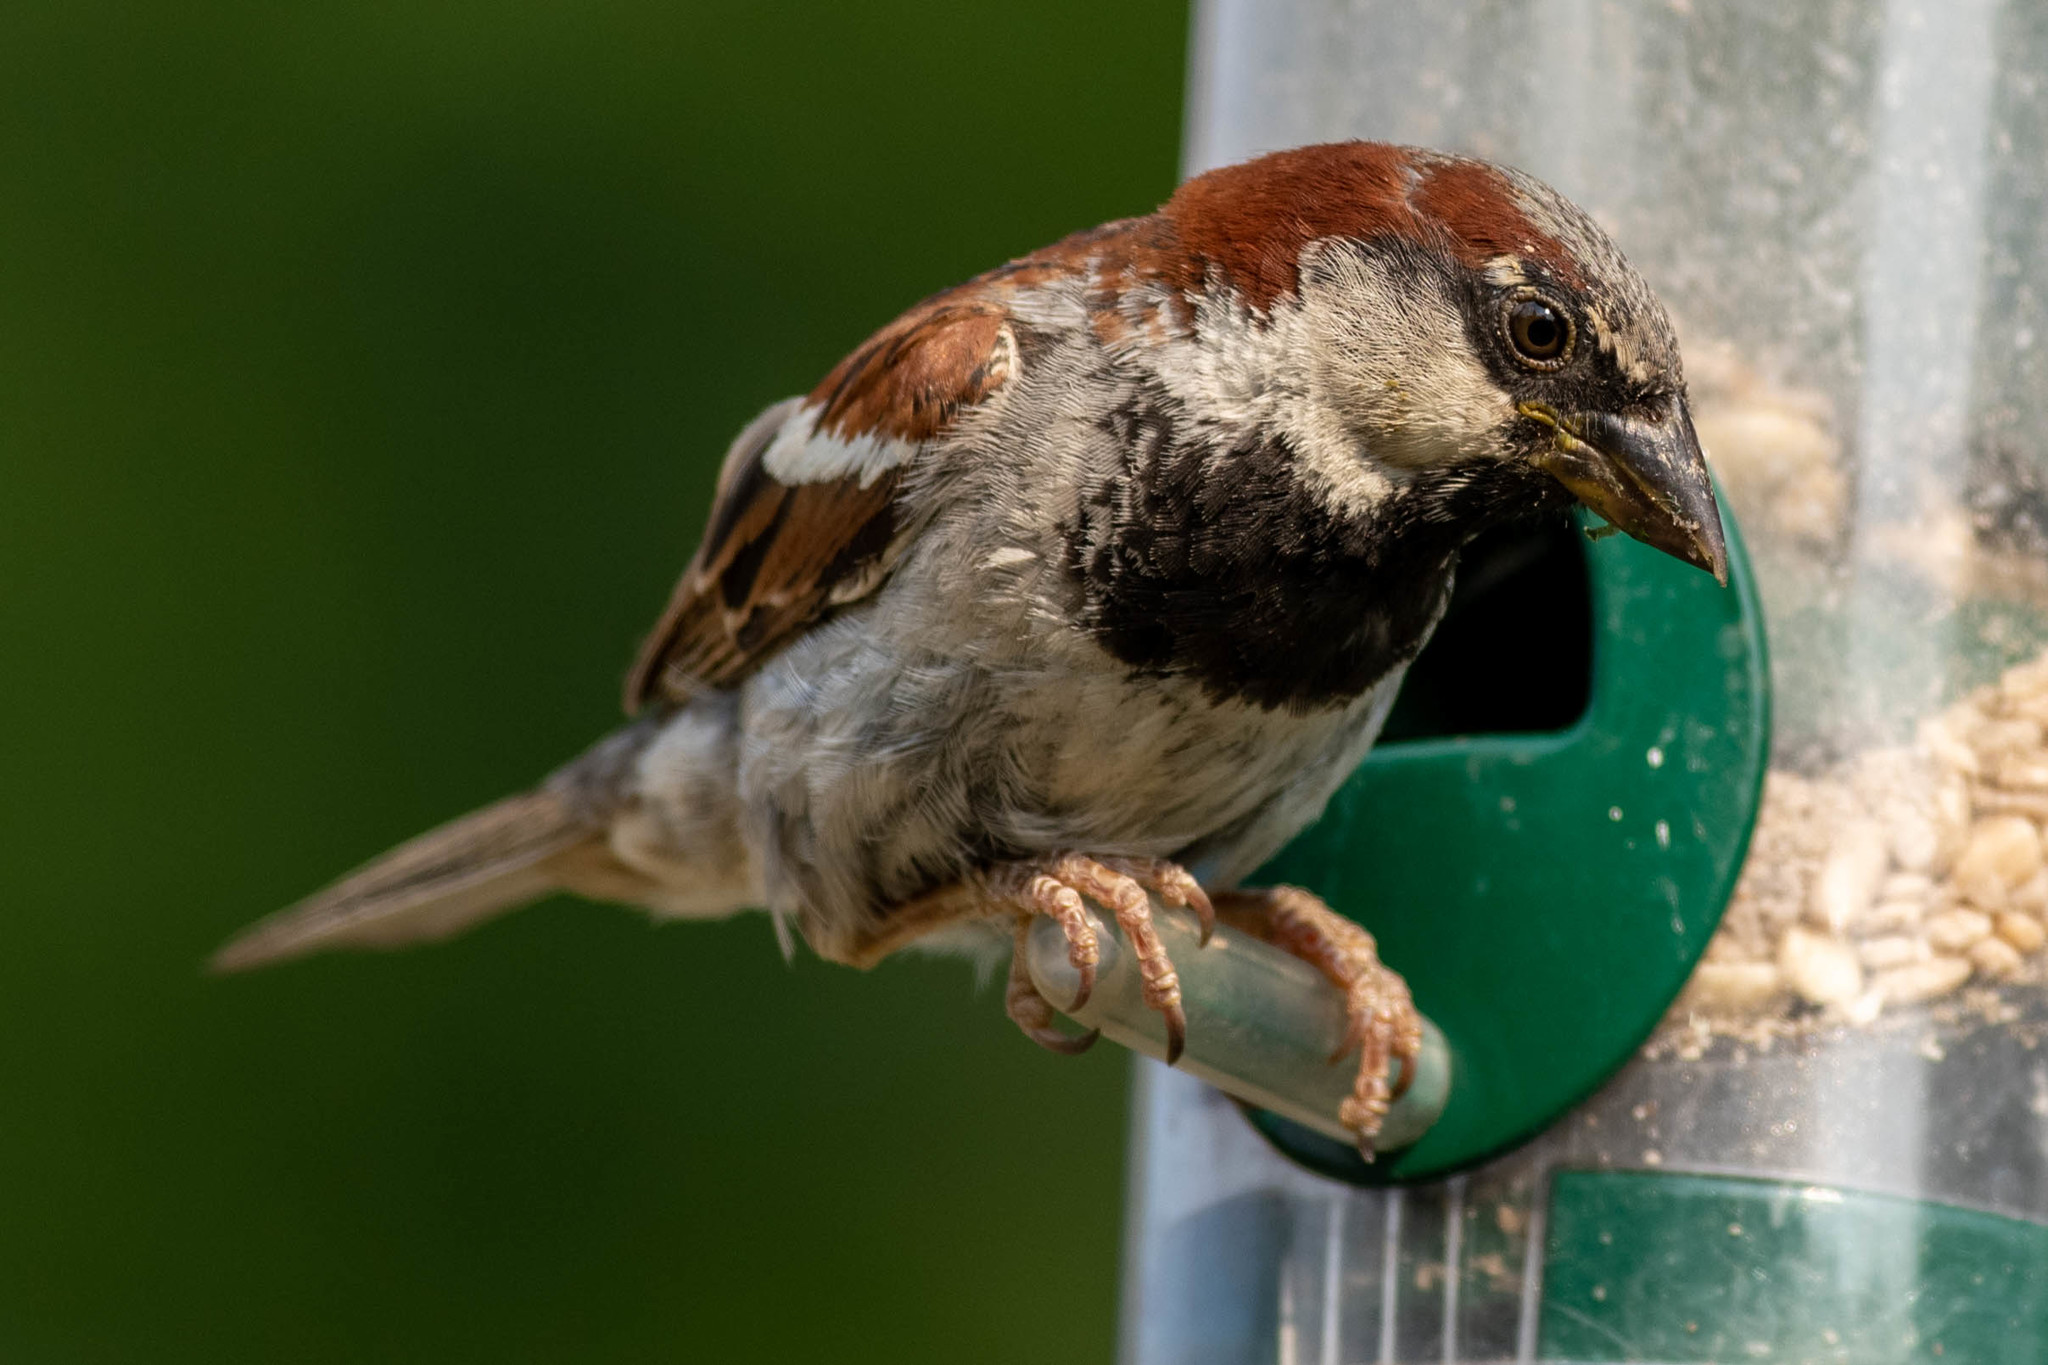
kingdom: Animalia
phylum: Chordata
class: Aves
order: Passeriformes
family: Passeridae
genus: Passer
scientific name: Passer domesticus
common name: House sparrow
